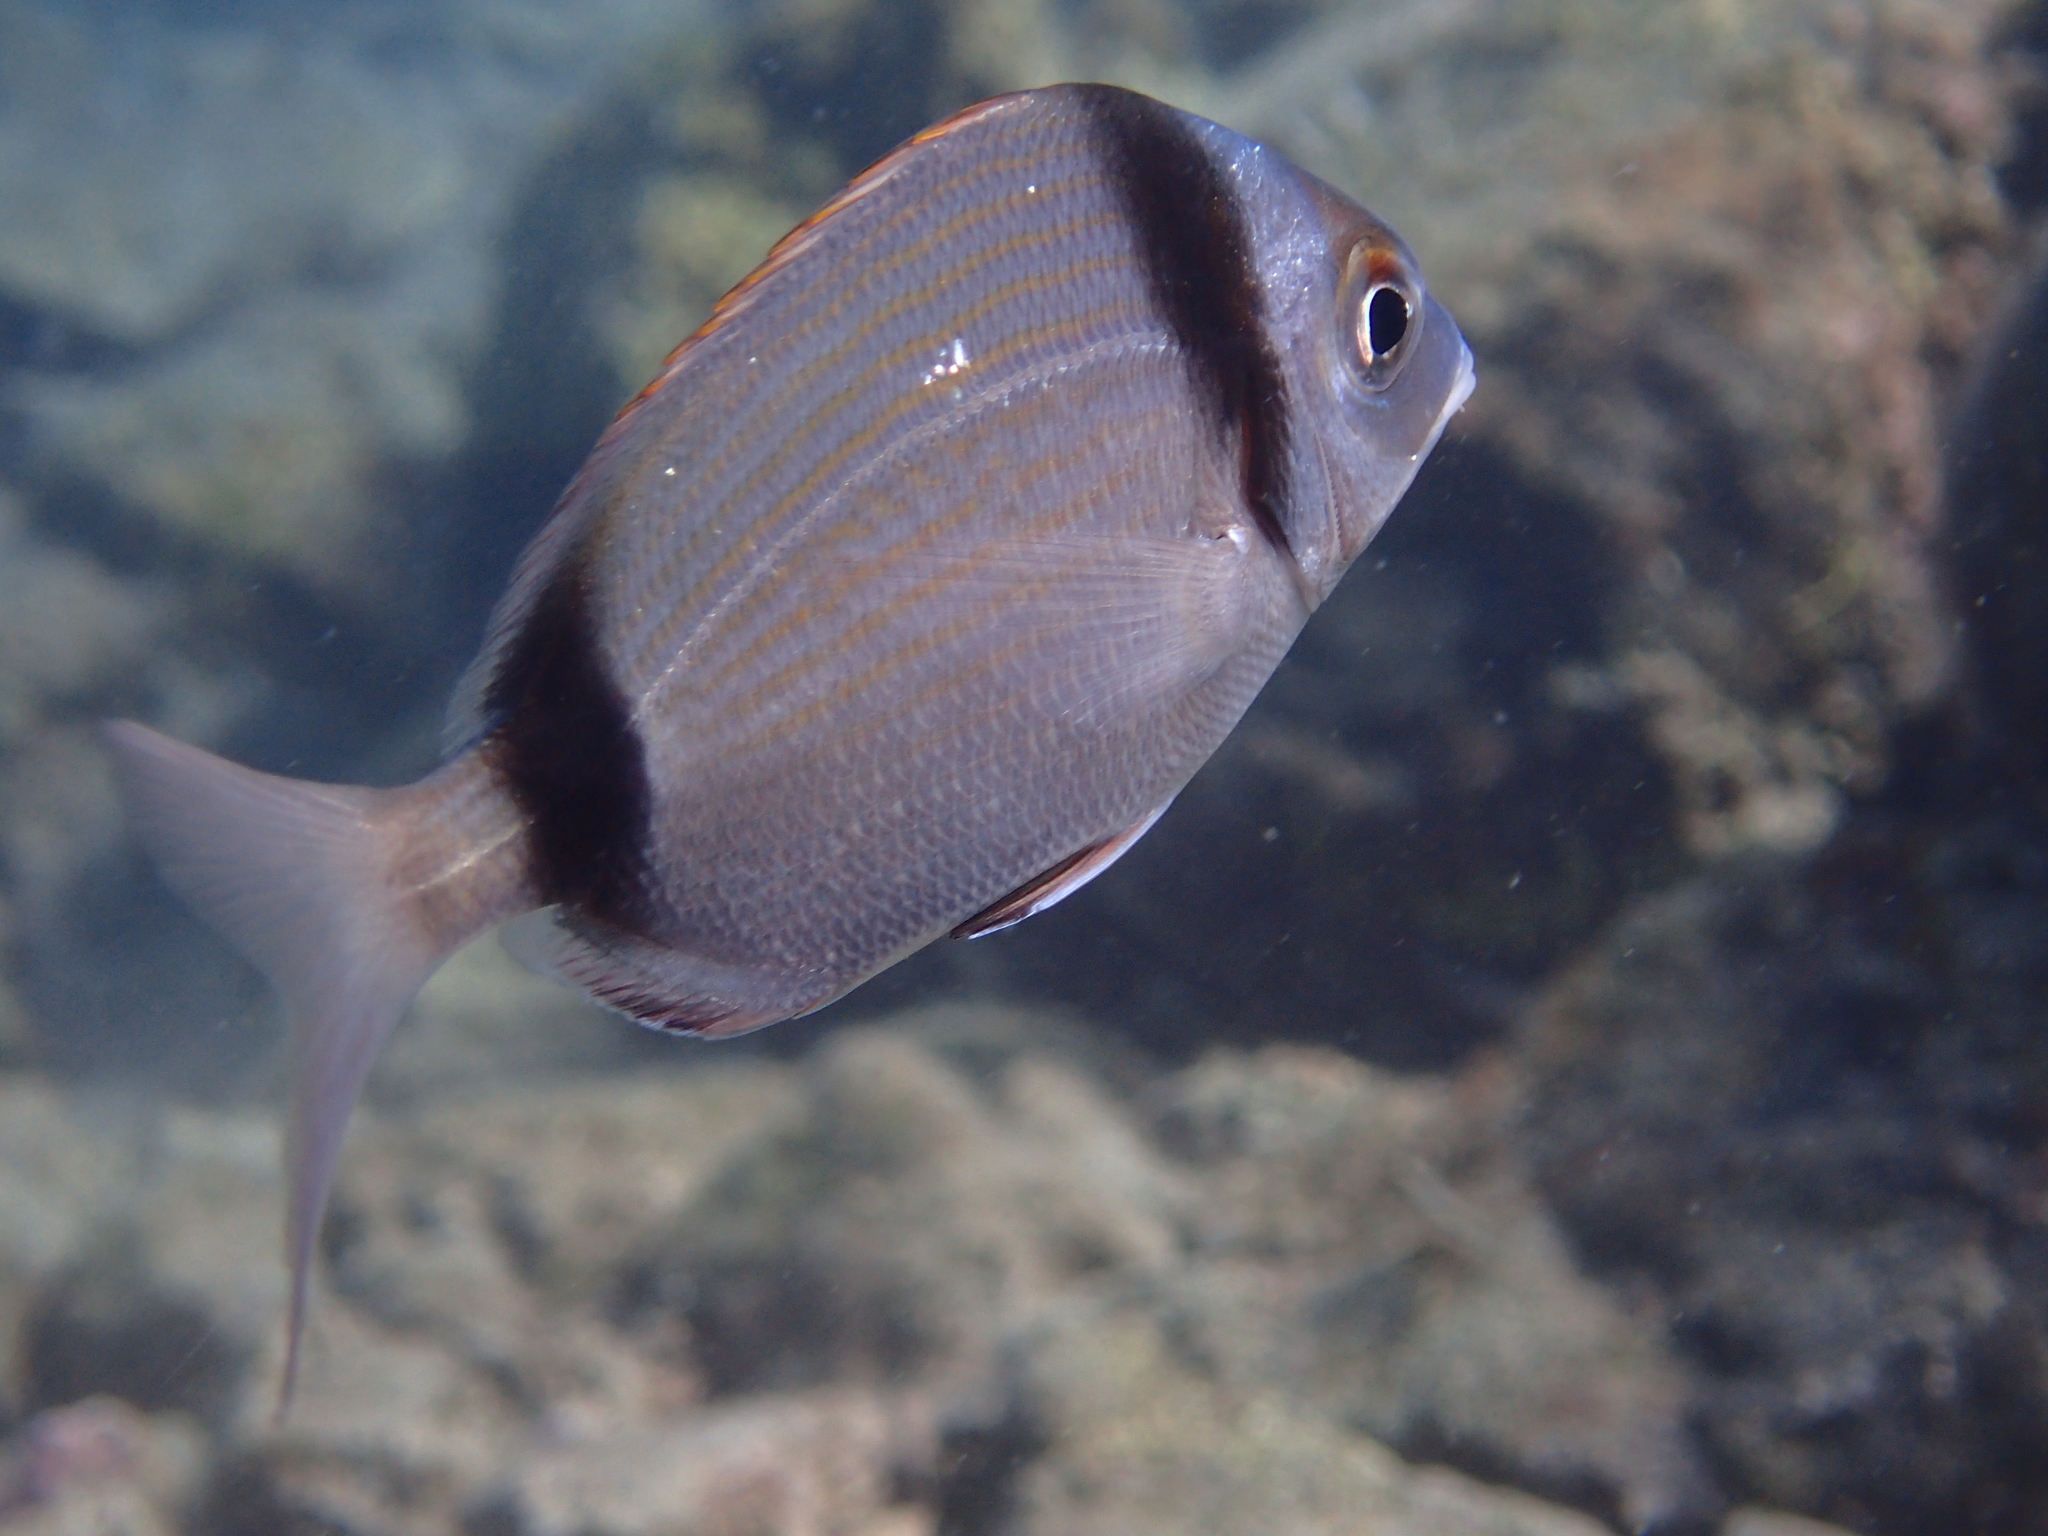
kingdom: Animalia
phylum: Chordata
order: Perciformes
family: Sparidae
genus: Diplodus
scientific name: Diplodus vulgaris
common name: Common two-banded seabream
